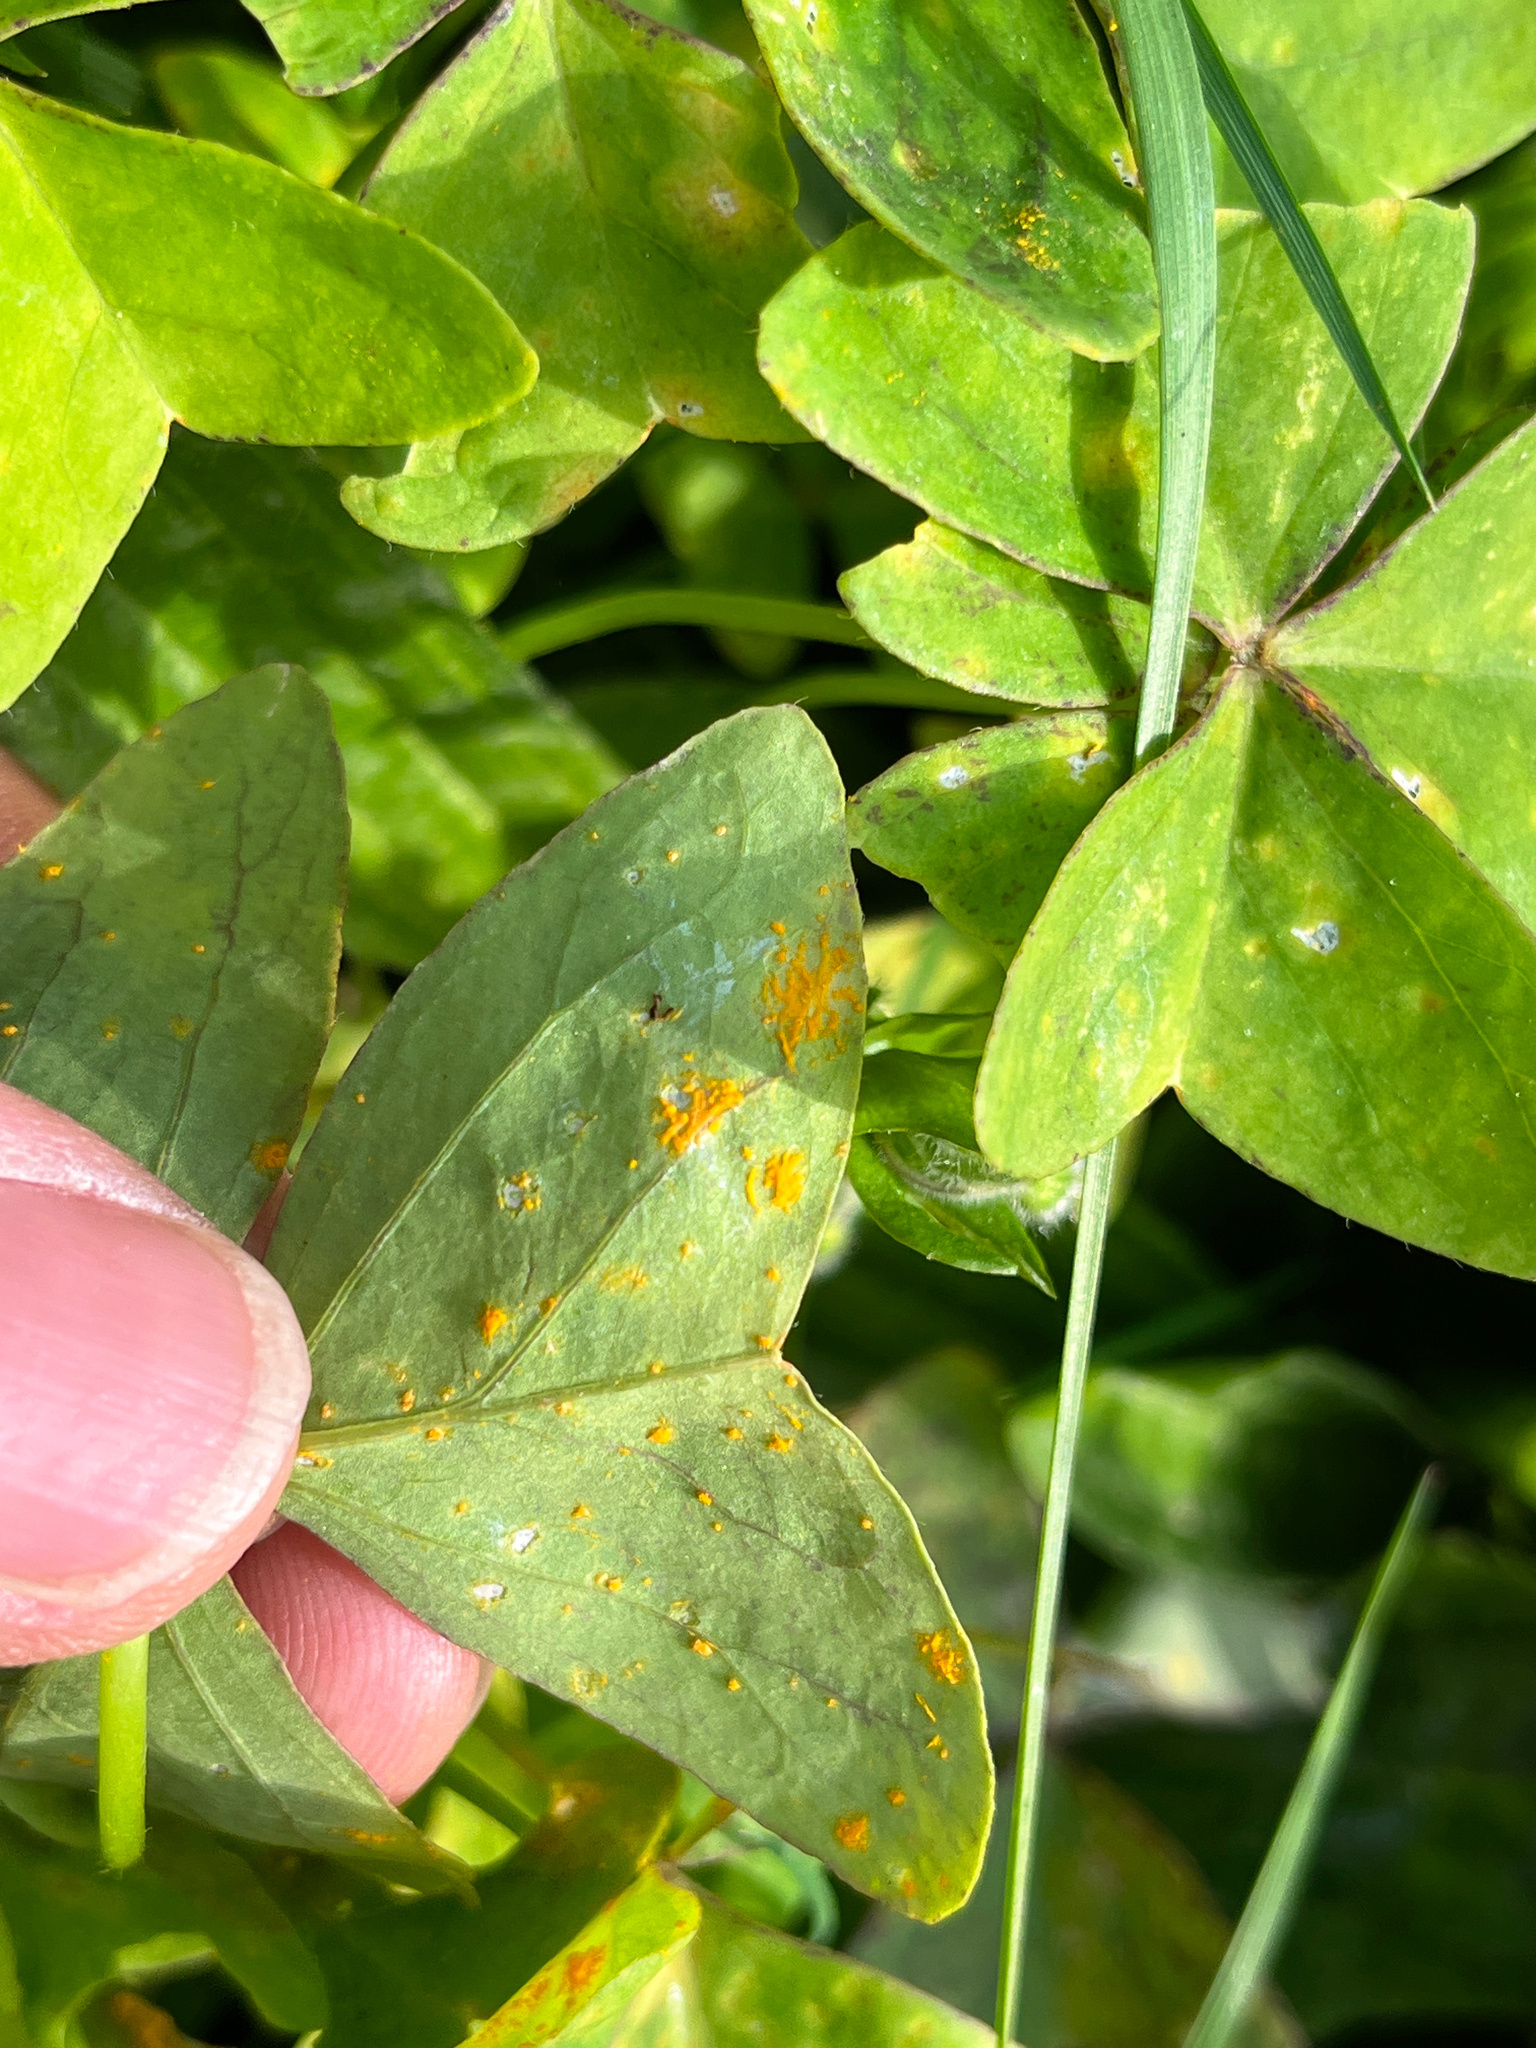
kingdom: Fungi
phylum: Basidiomycota
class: Pucciniomycetes
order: Pucciniales
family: Pucciniaceae
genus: Puccinia
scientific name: Puccinia oxalidis
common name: Oxalis rust
